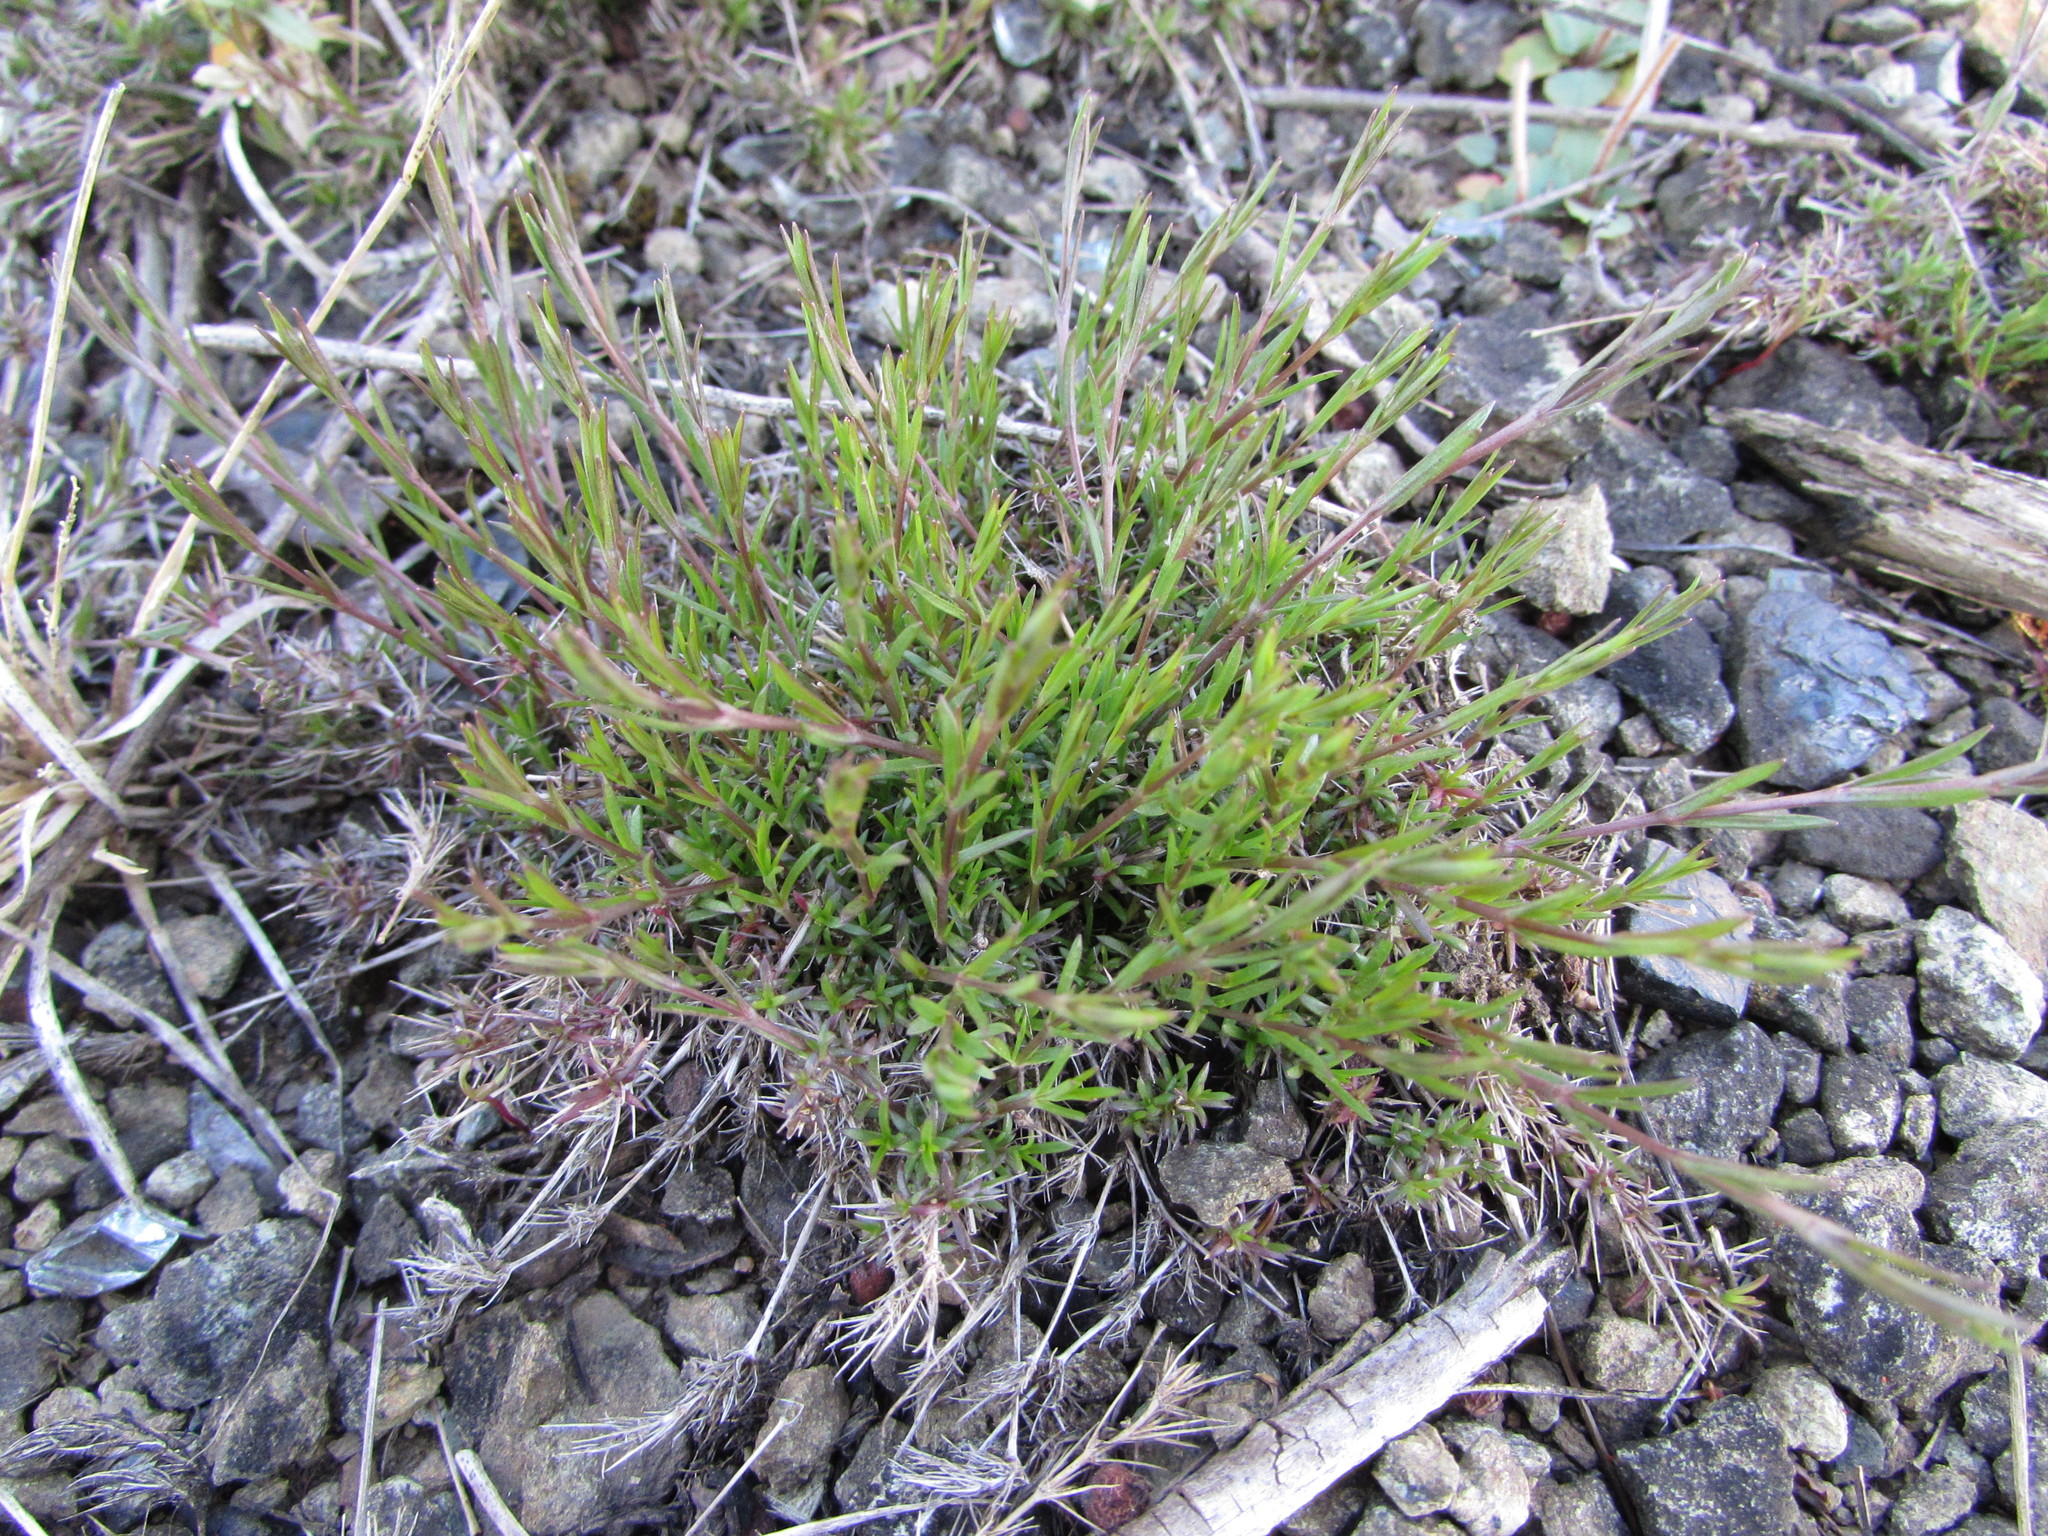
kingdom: Plantae
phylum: Tracheophyta
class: Magnoliopsida
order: Caryophyllales
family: Caryophyllaceae
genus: Sabulina
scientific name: Sabulina michauxii
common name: Michaux's stitchwort
